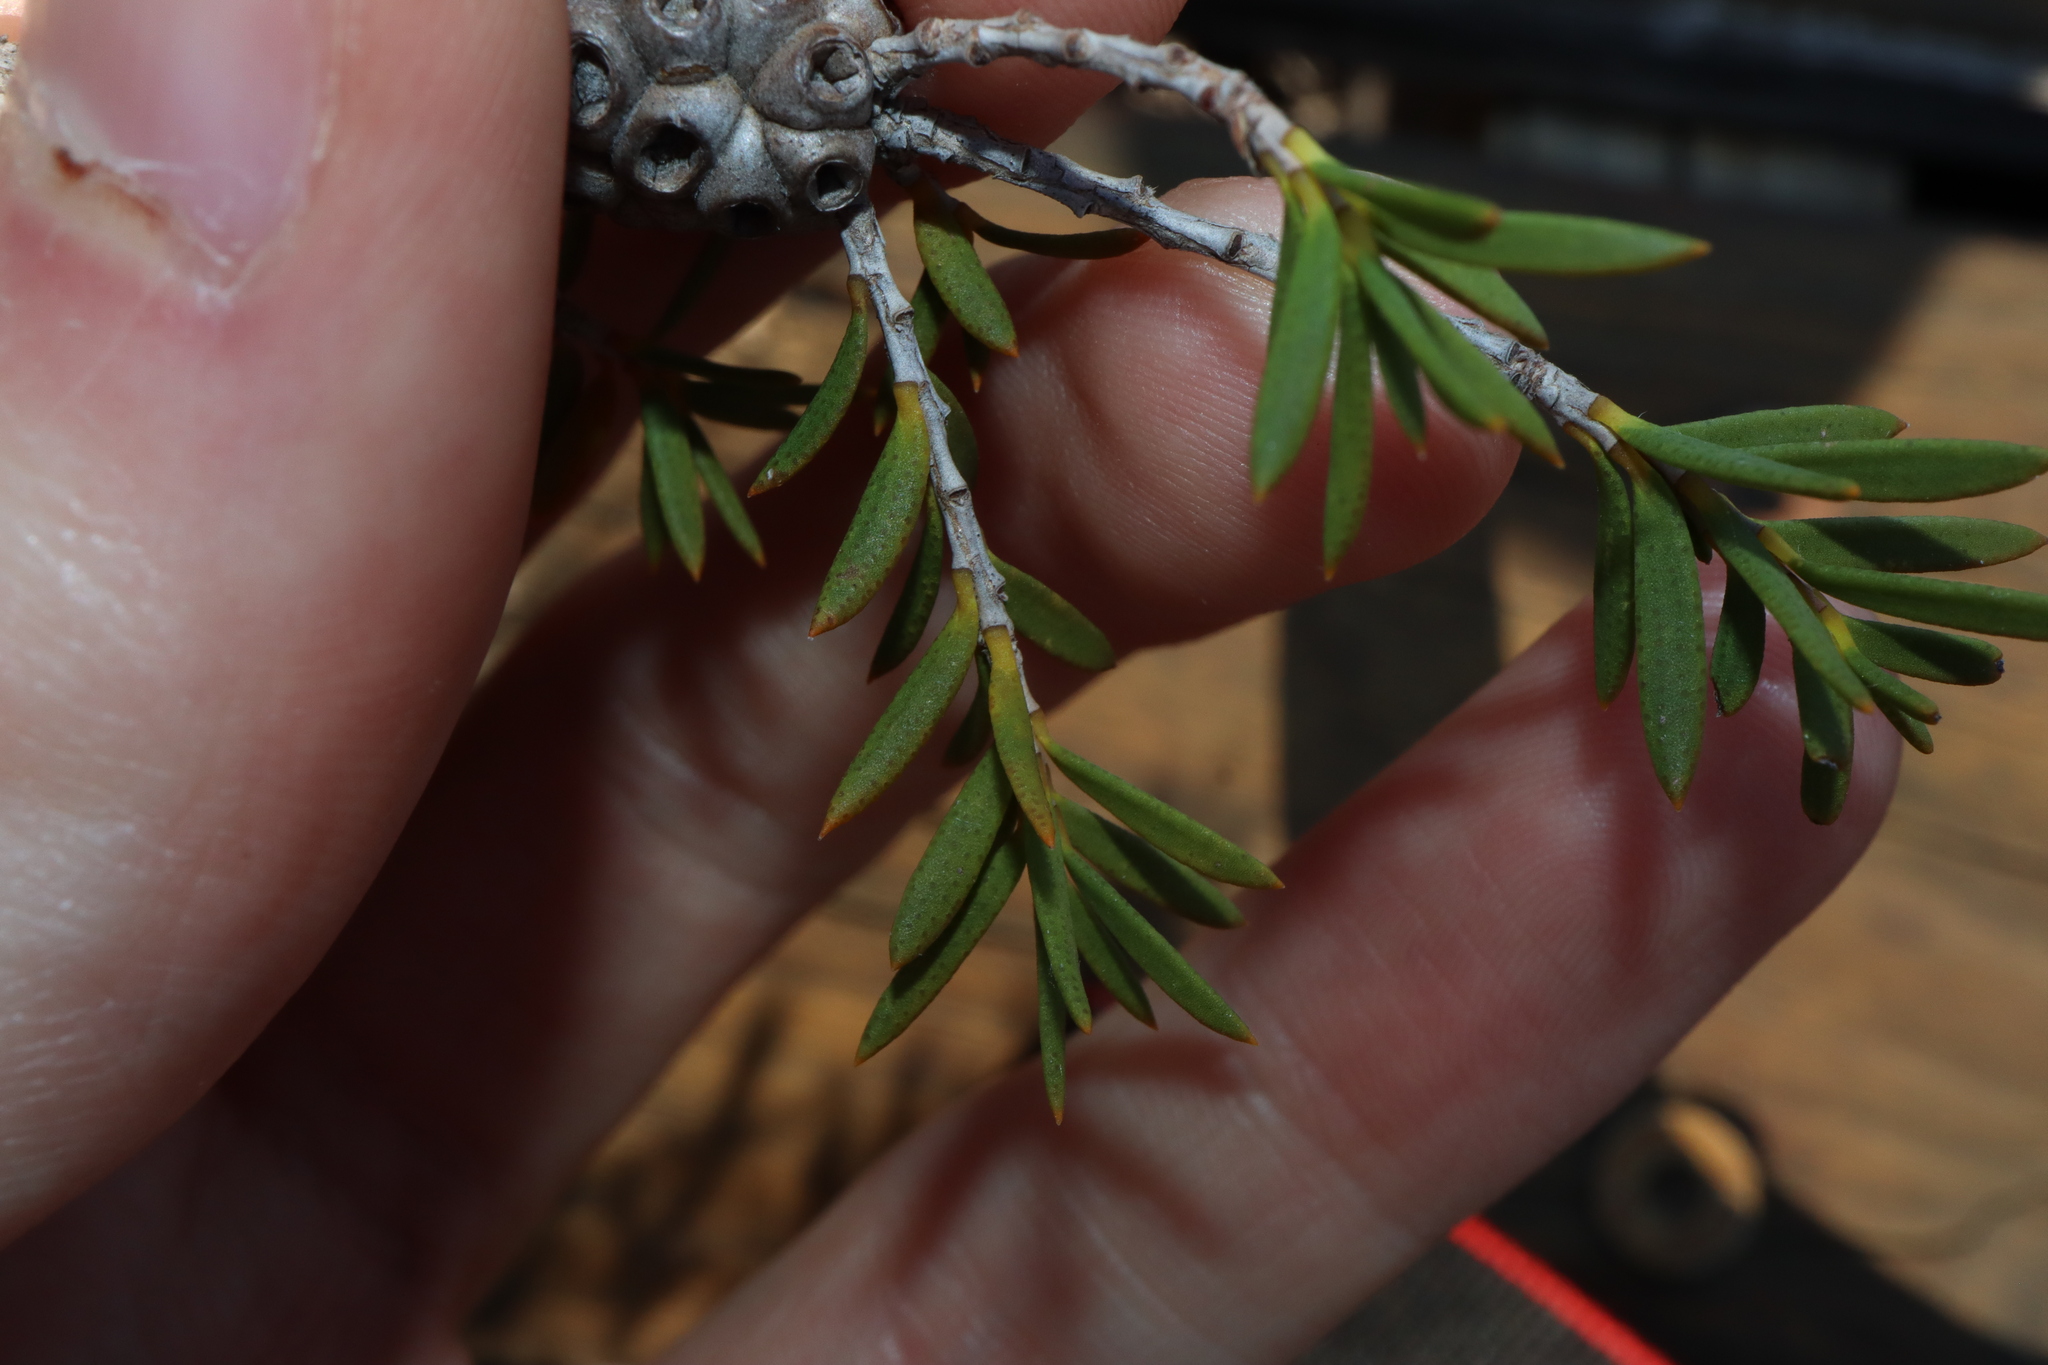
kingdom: Plantae
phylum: Tracheophyta
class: Magnoliopsida
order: Myrtales
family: Myrtaceae
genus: Melaleuca
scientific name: Melaleuca striata
